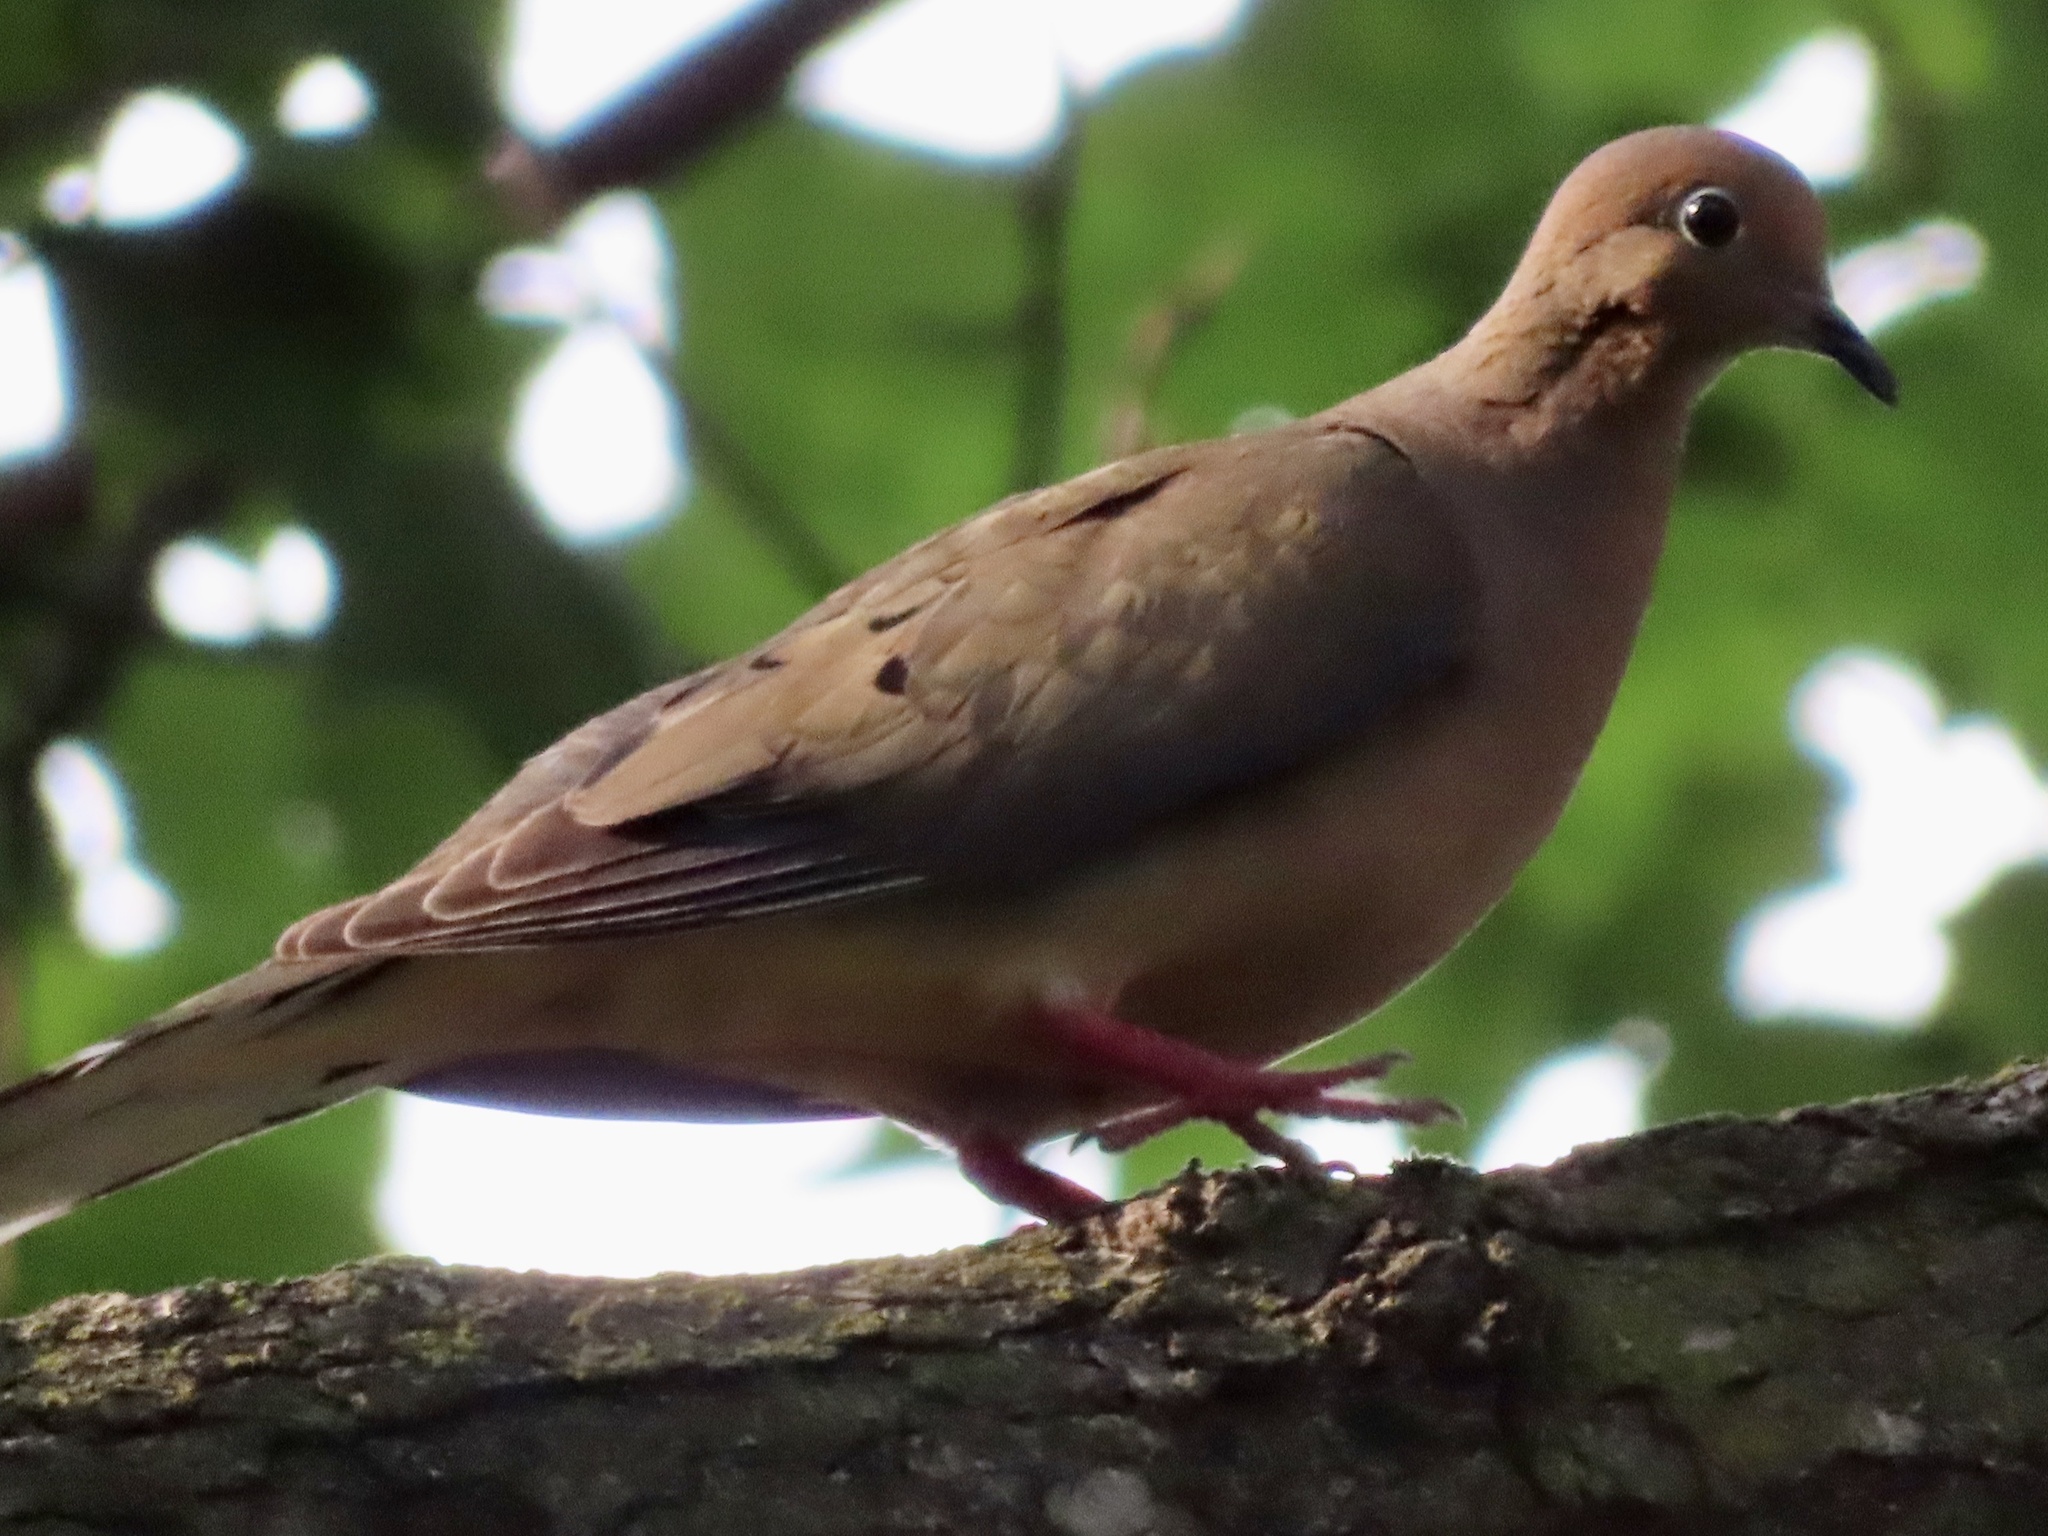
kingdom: Animalia
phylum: Chordata
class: Aves
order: Columbiformes
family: Columbidae
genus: Zenaida
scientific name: Zenaida macroura
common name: Mourning dove
